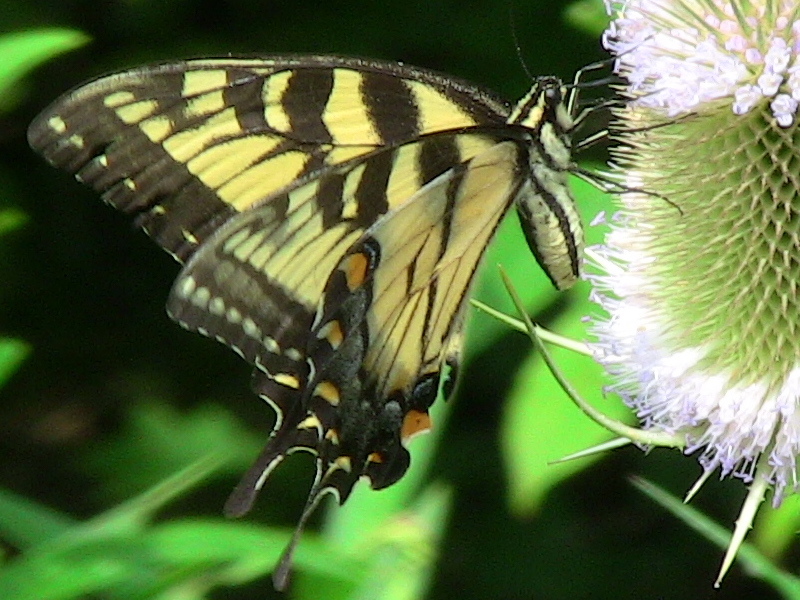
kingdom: Animalia
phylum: Arthropoda
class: Insecta
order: Lepidoptera
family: Papilionidae
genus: Papilio
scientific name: Papilio glaucus
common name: Tiger swallowtail
